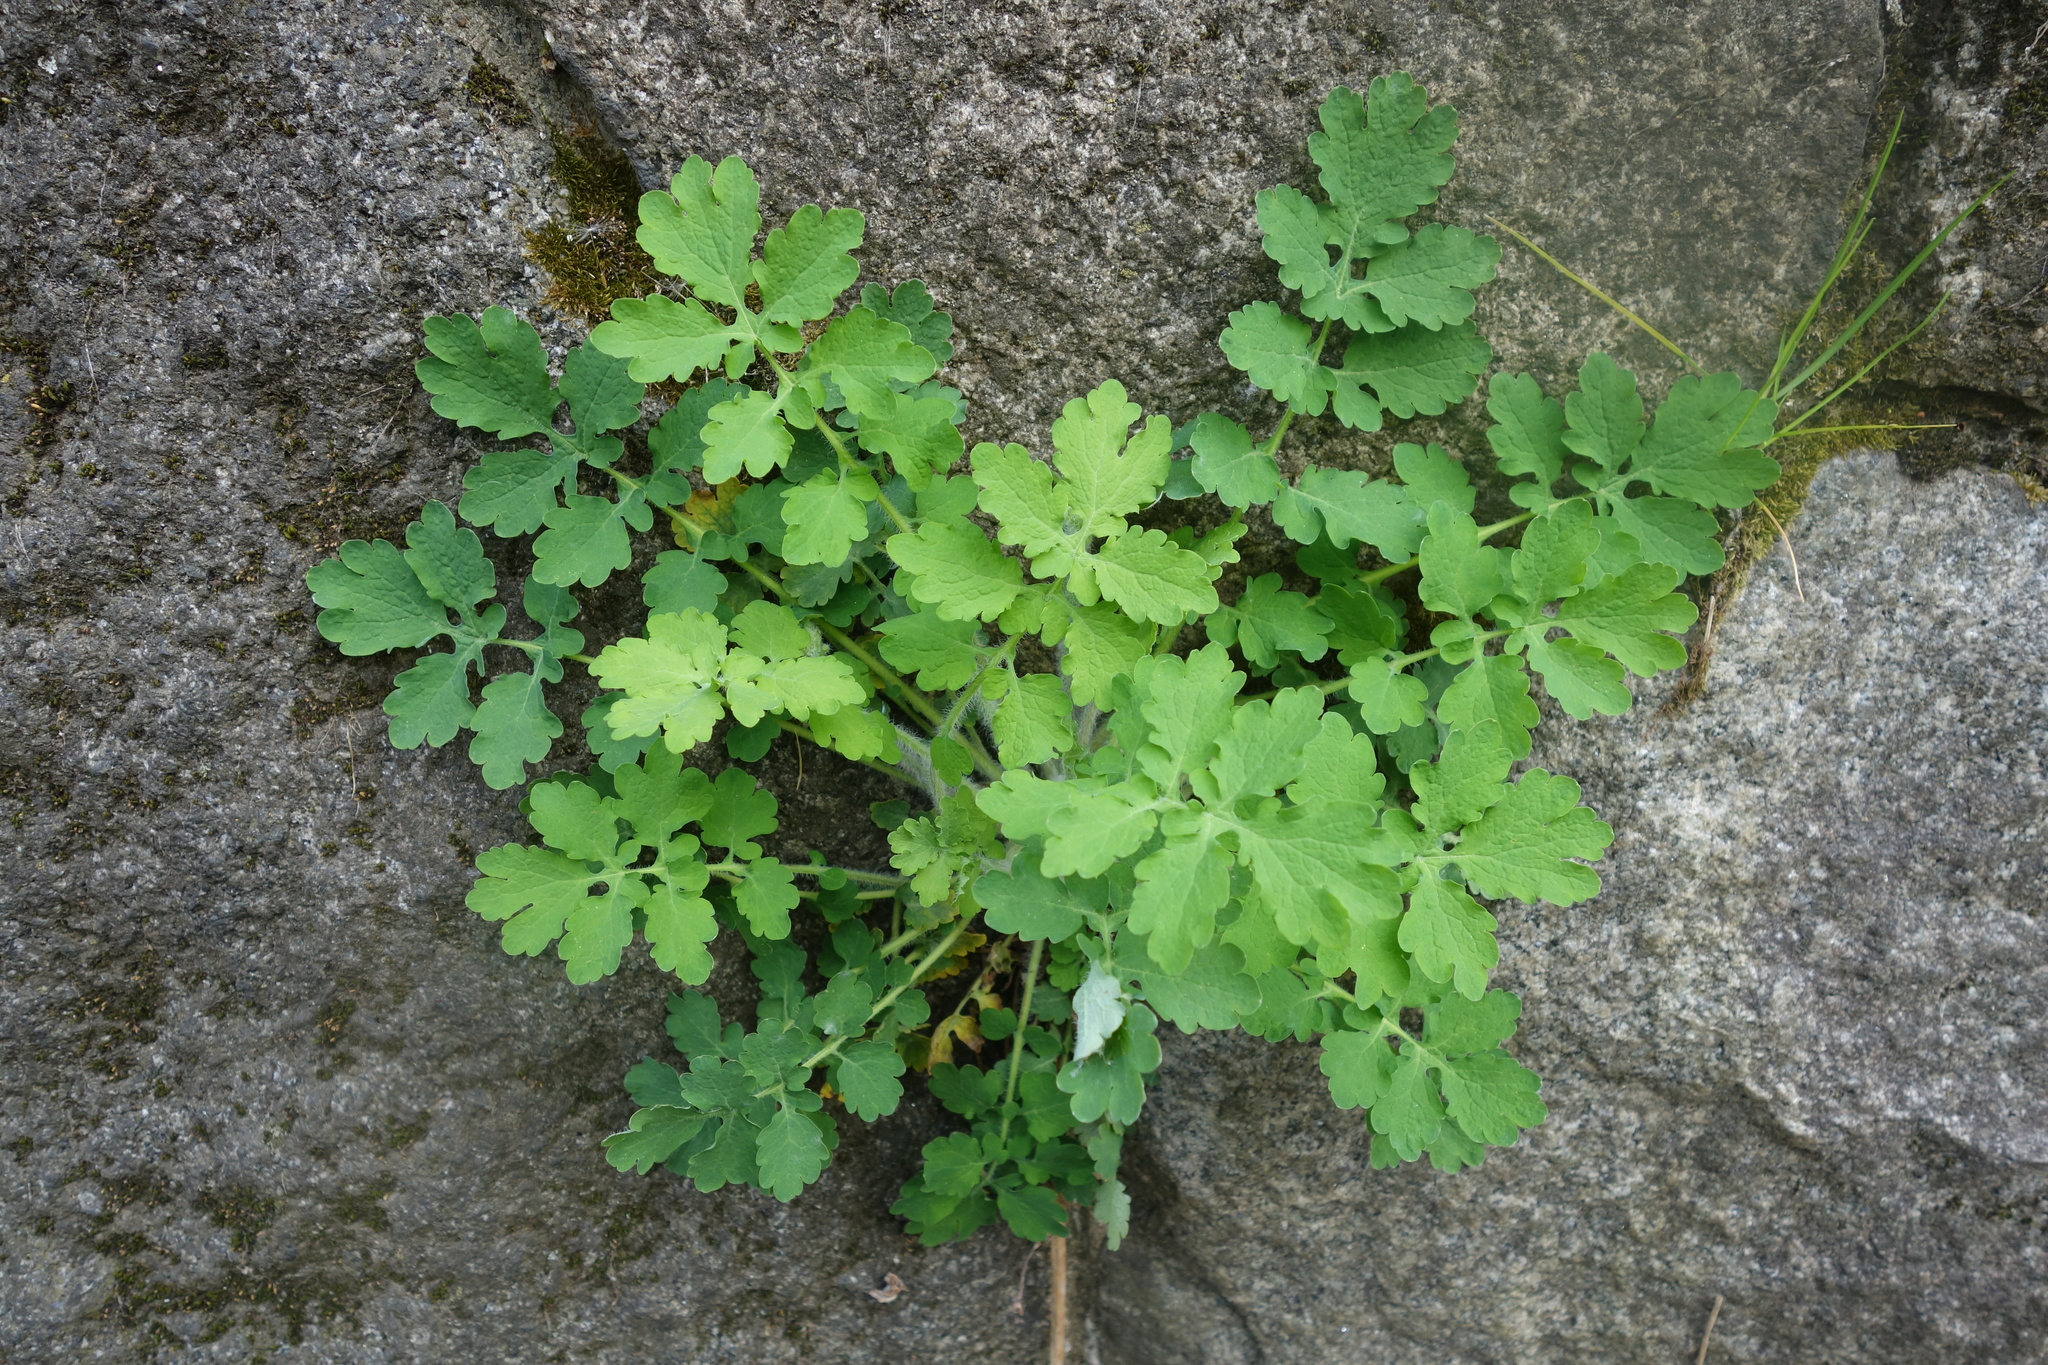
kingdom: Plantae
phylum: Tracheophyta
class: Magnoliopsida
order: Ranunculales
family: Papaveraceae
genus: Chelidonium
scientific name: Chelidonium majus
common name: Greater celandine
